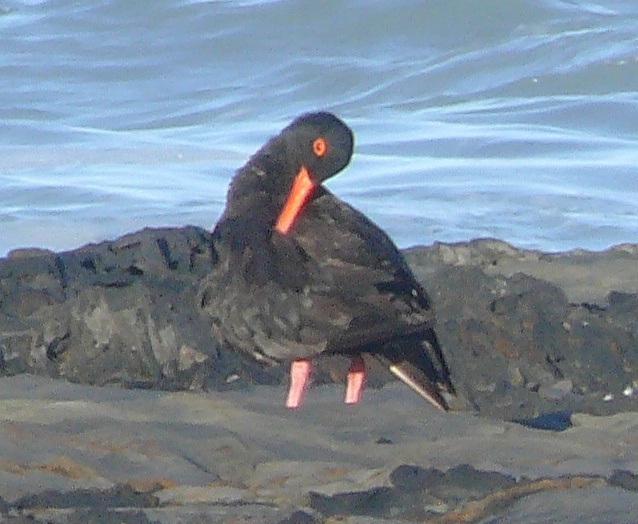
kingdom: Animalia
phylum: Chordata
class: Aves
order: Charadriiformes
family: Haematopodidae
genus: Haematopus
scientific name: Haematopus moquini
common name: African oystercatcher
